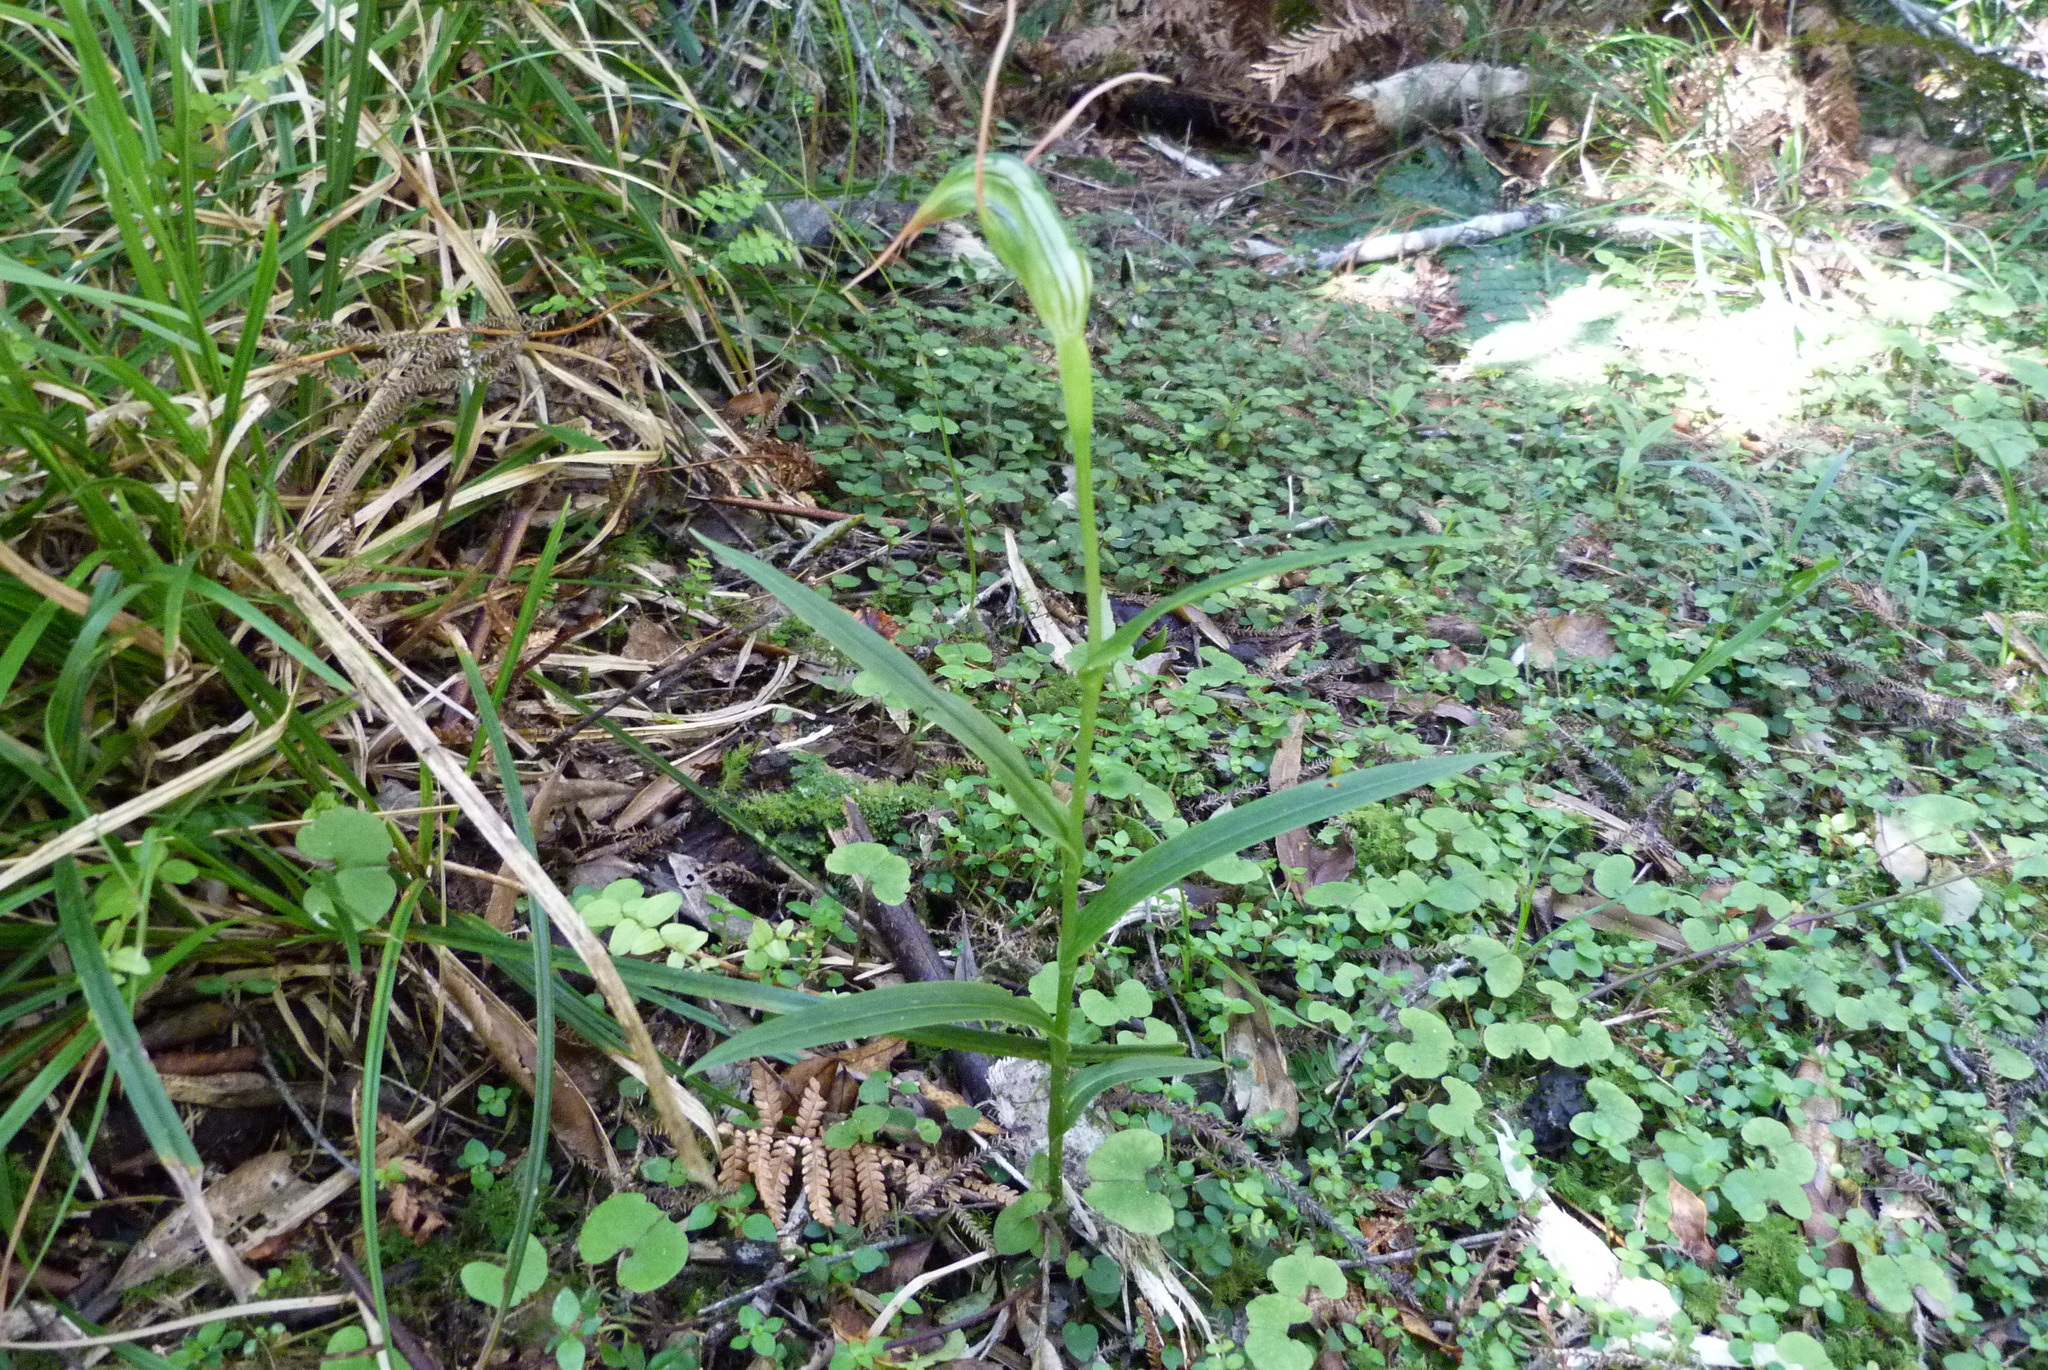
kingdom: Plantae
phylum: Tracheophyta
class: Liliopsida
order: Asparagales
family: Orchidaceae
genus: Pterostylis
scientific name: Pterostylis banksii
